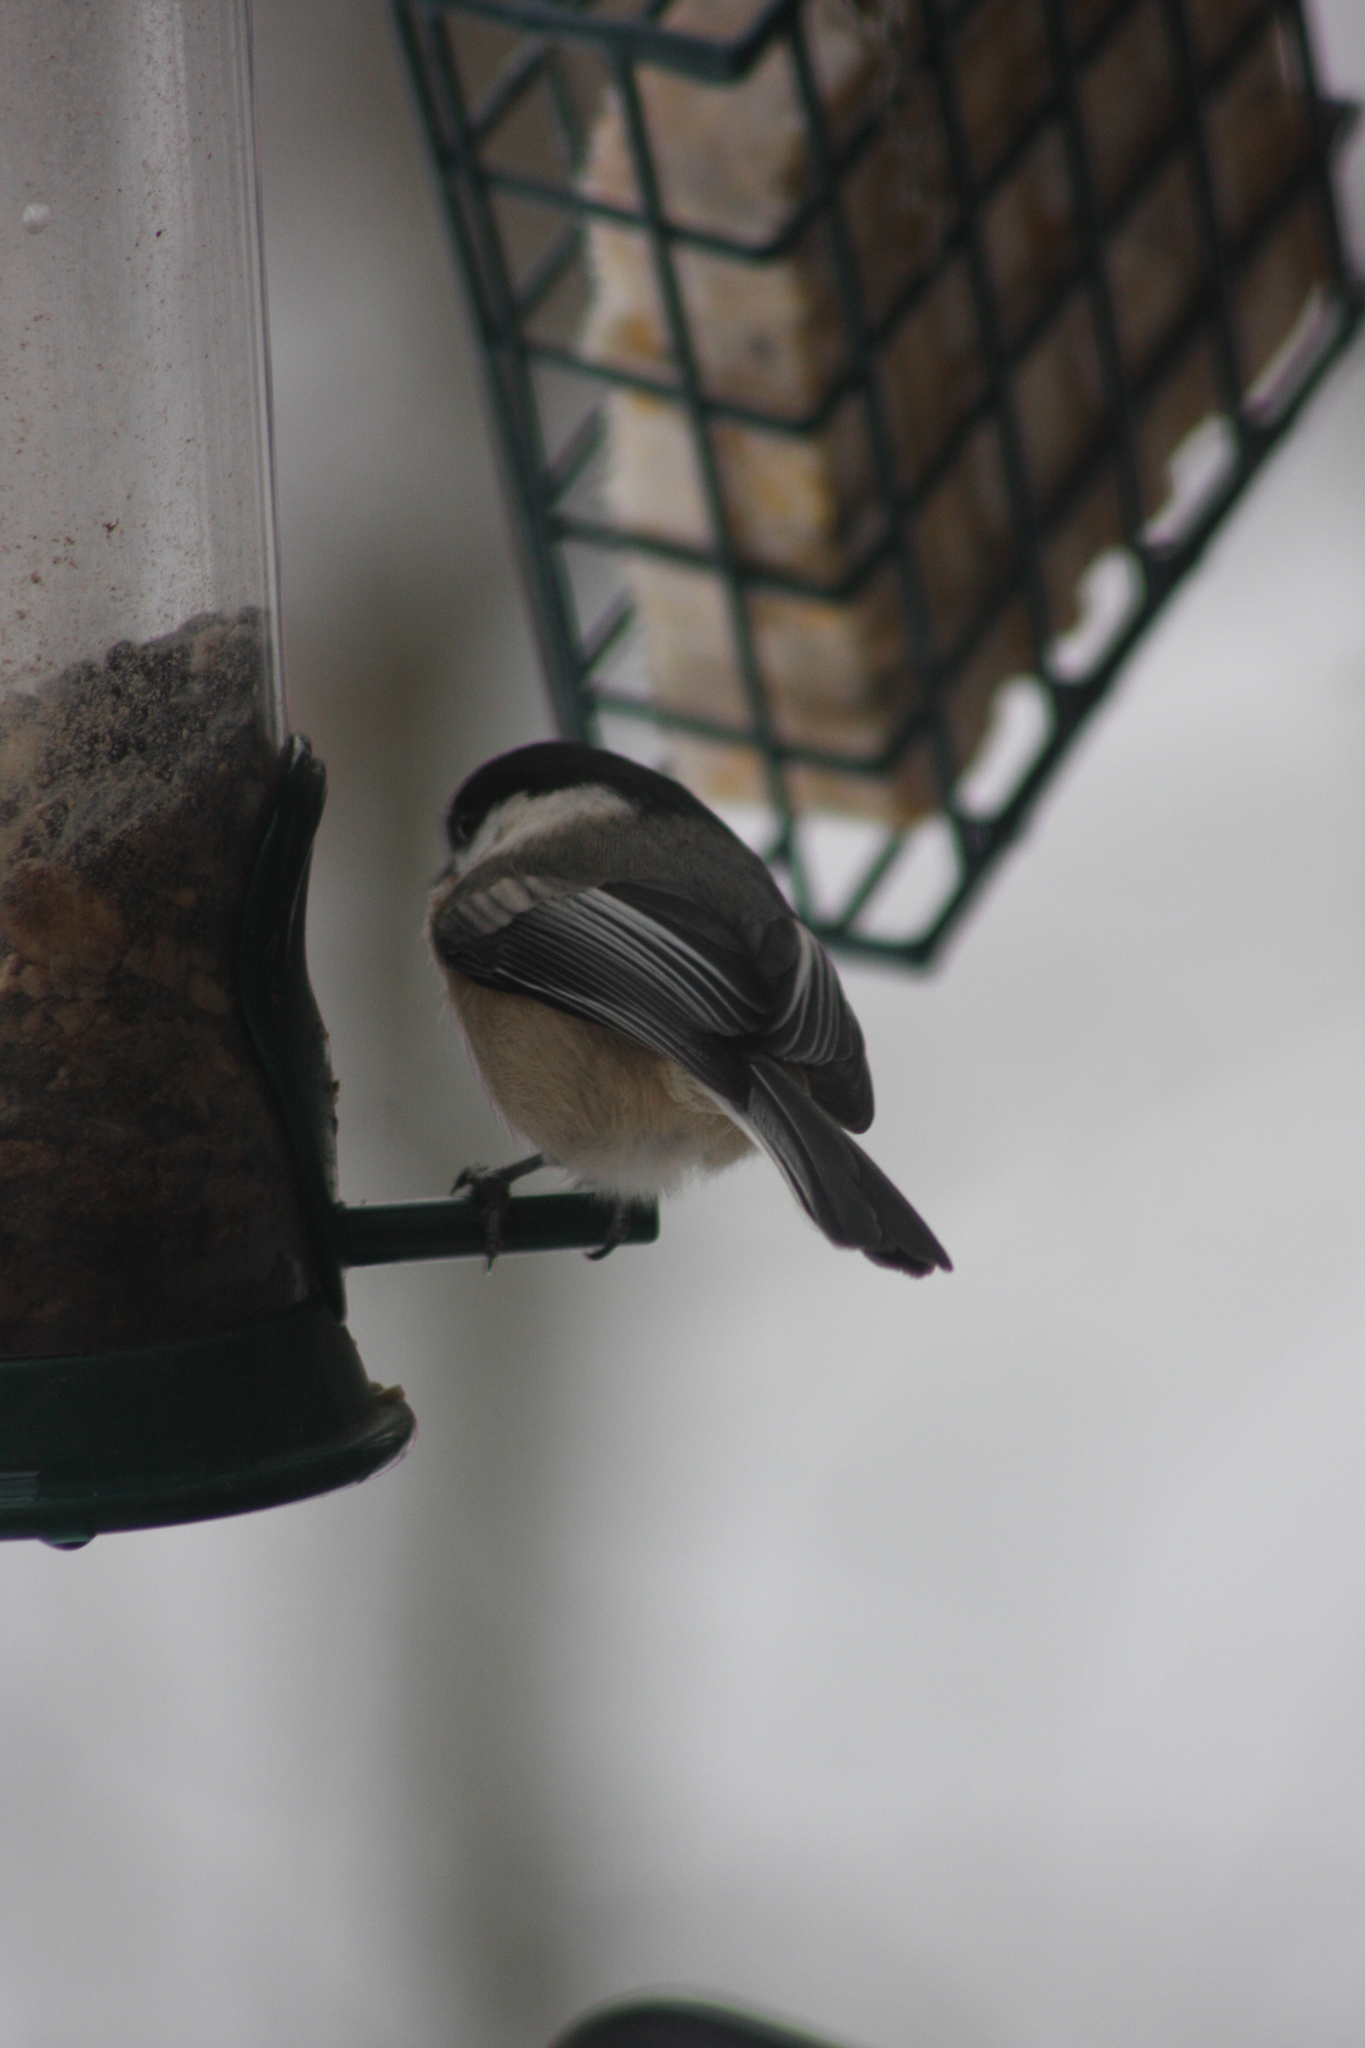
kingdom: Animalia
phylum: Chordata
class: Aves
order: Passeriformes
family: Paridae
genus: Poecile
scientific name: Poecile atricapillus
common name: Black-capped chickadee
